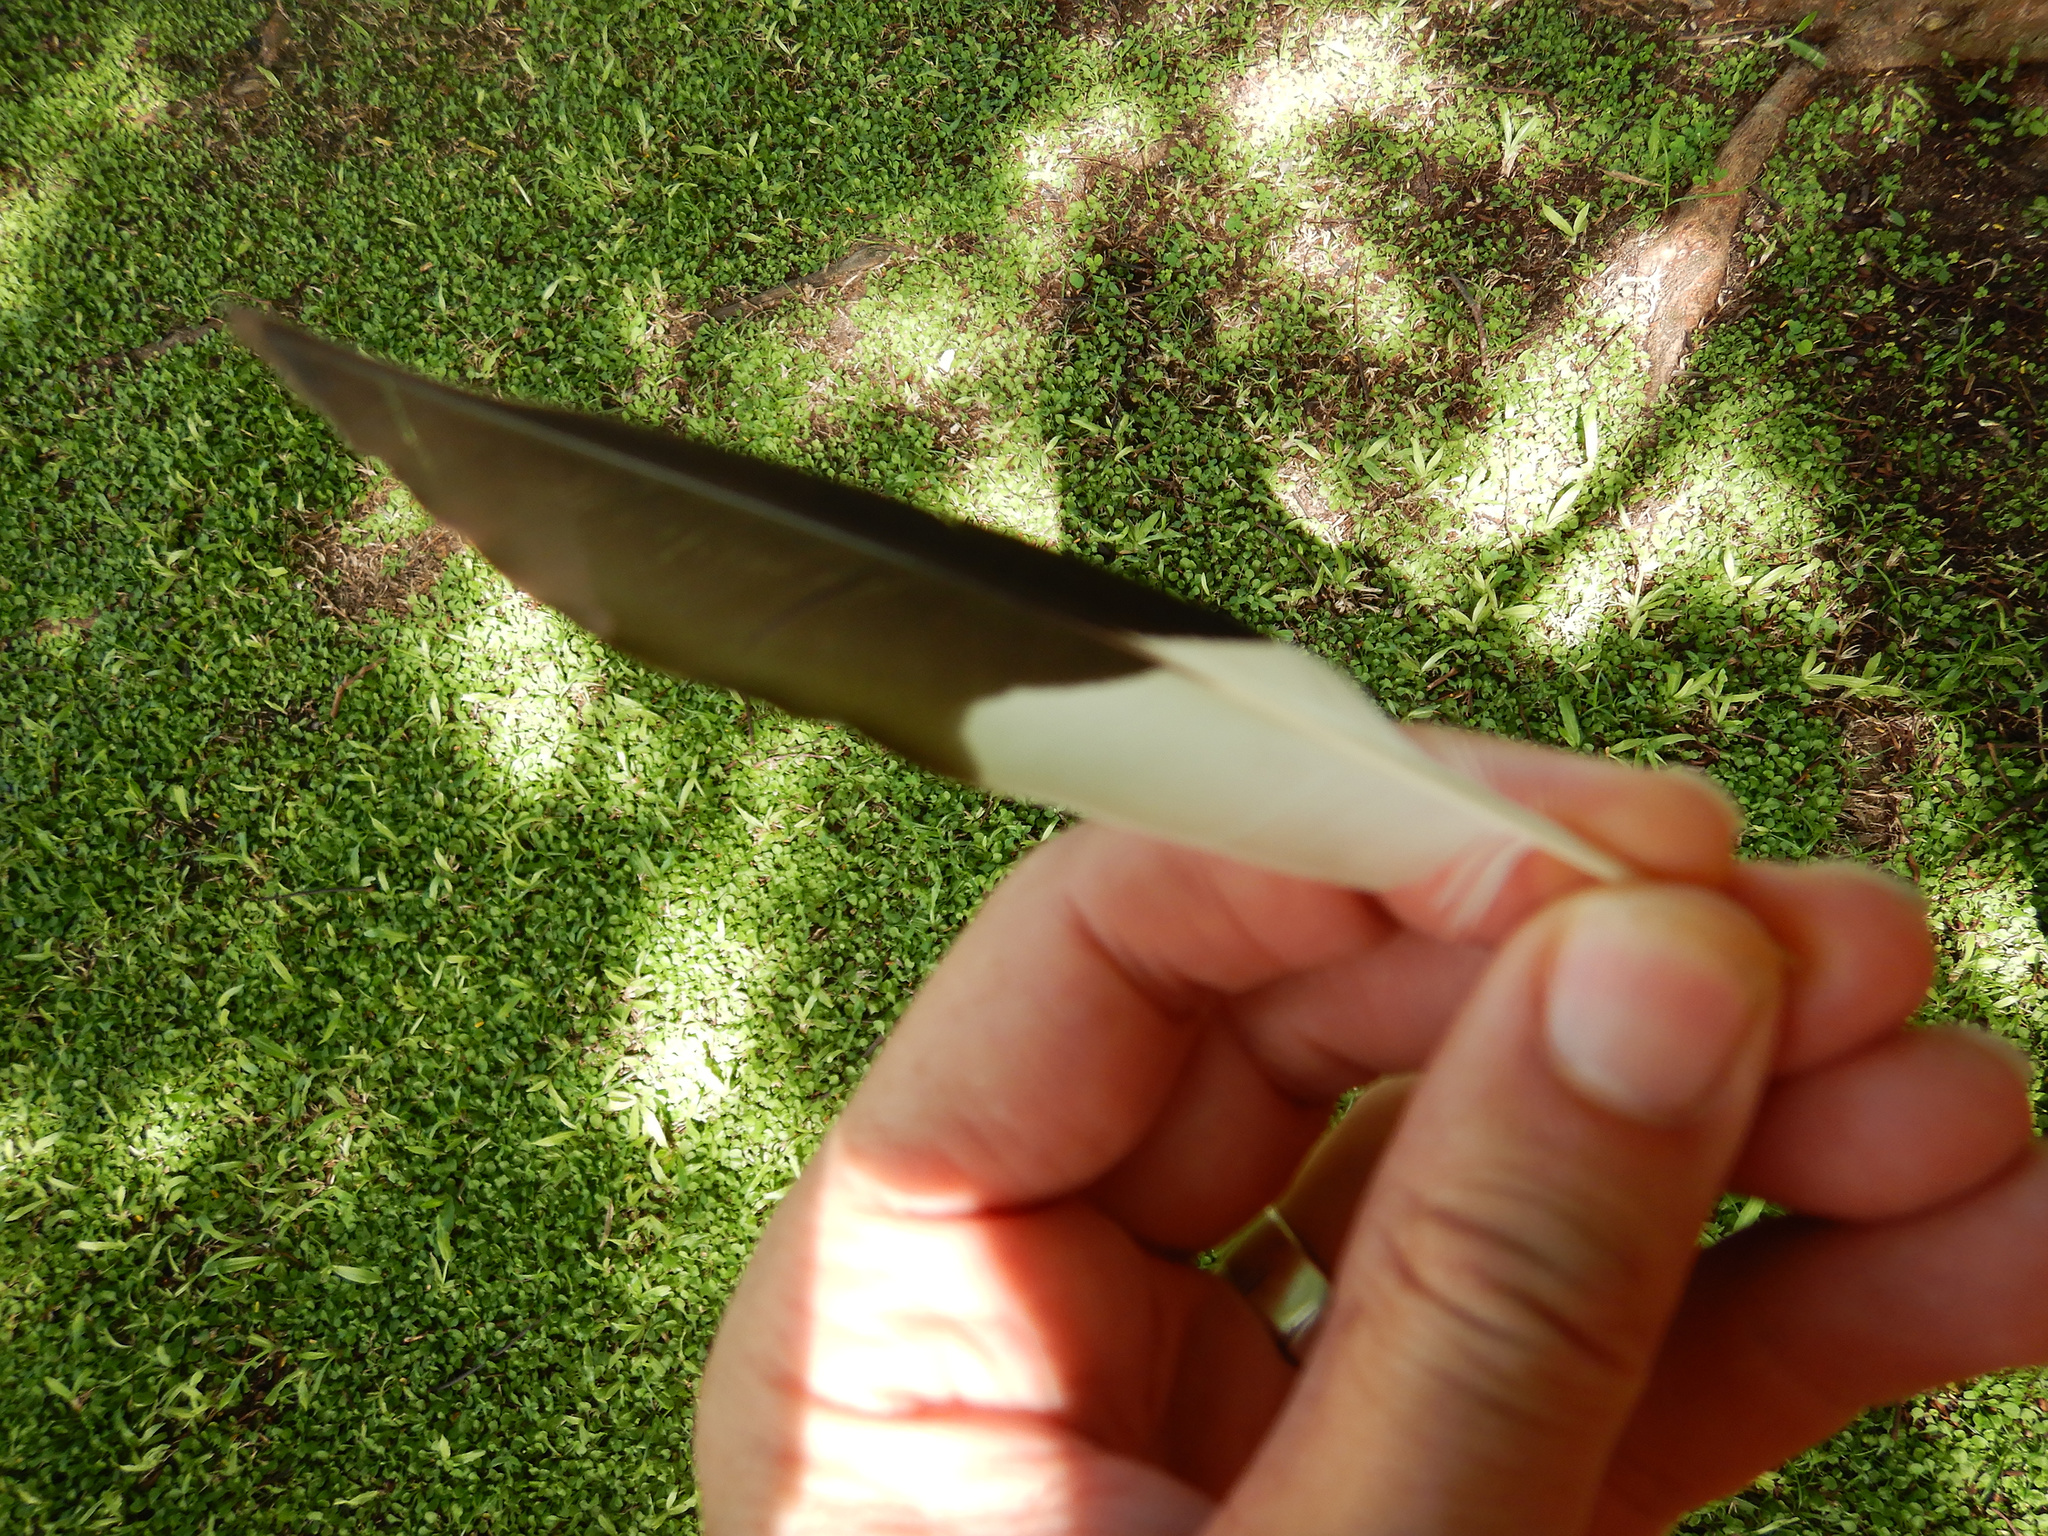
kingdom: Animalia
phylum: Chordata
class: Aves
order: Passeriformes
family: Sturnidae
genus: Acridotheres
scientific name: Acridotheres tristis
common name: Common myna
